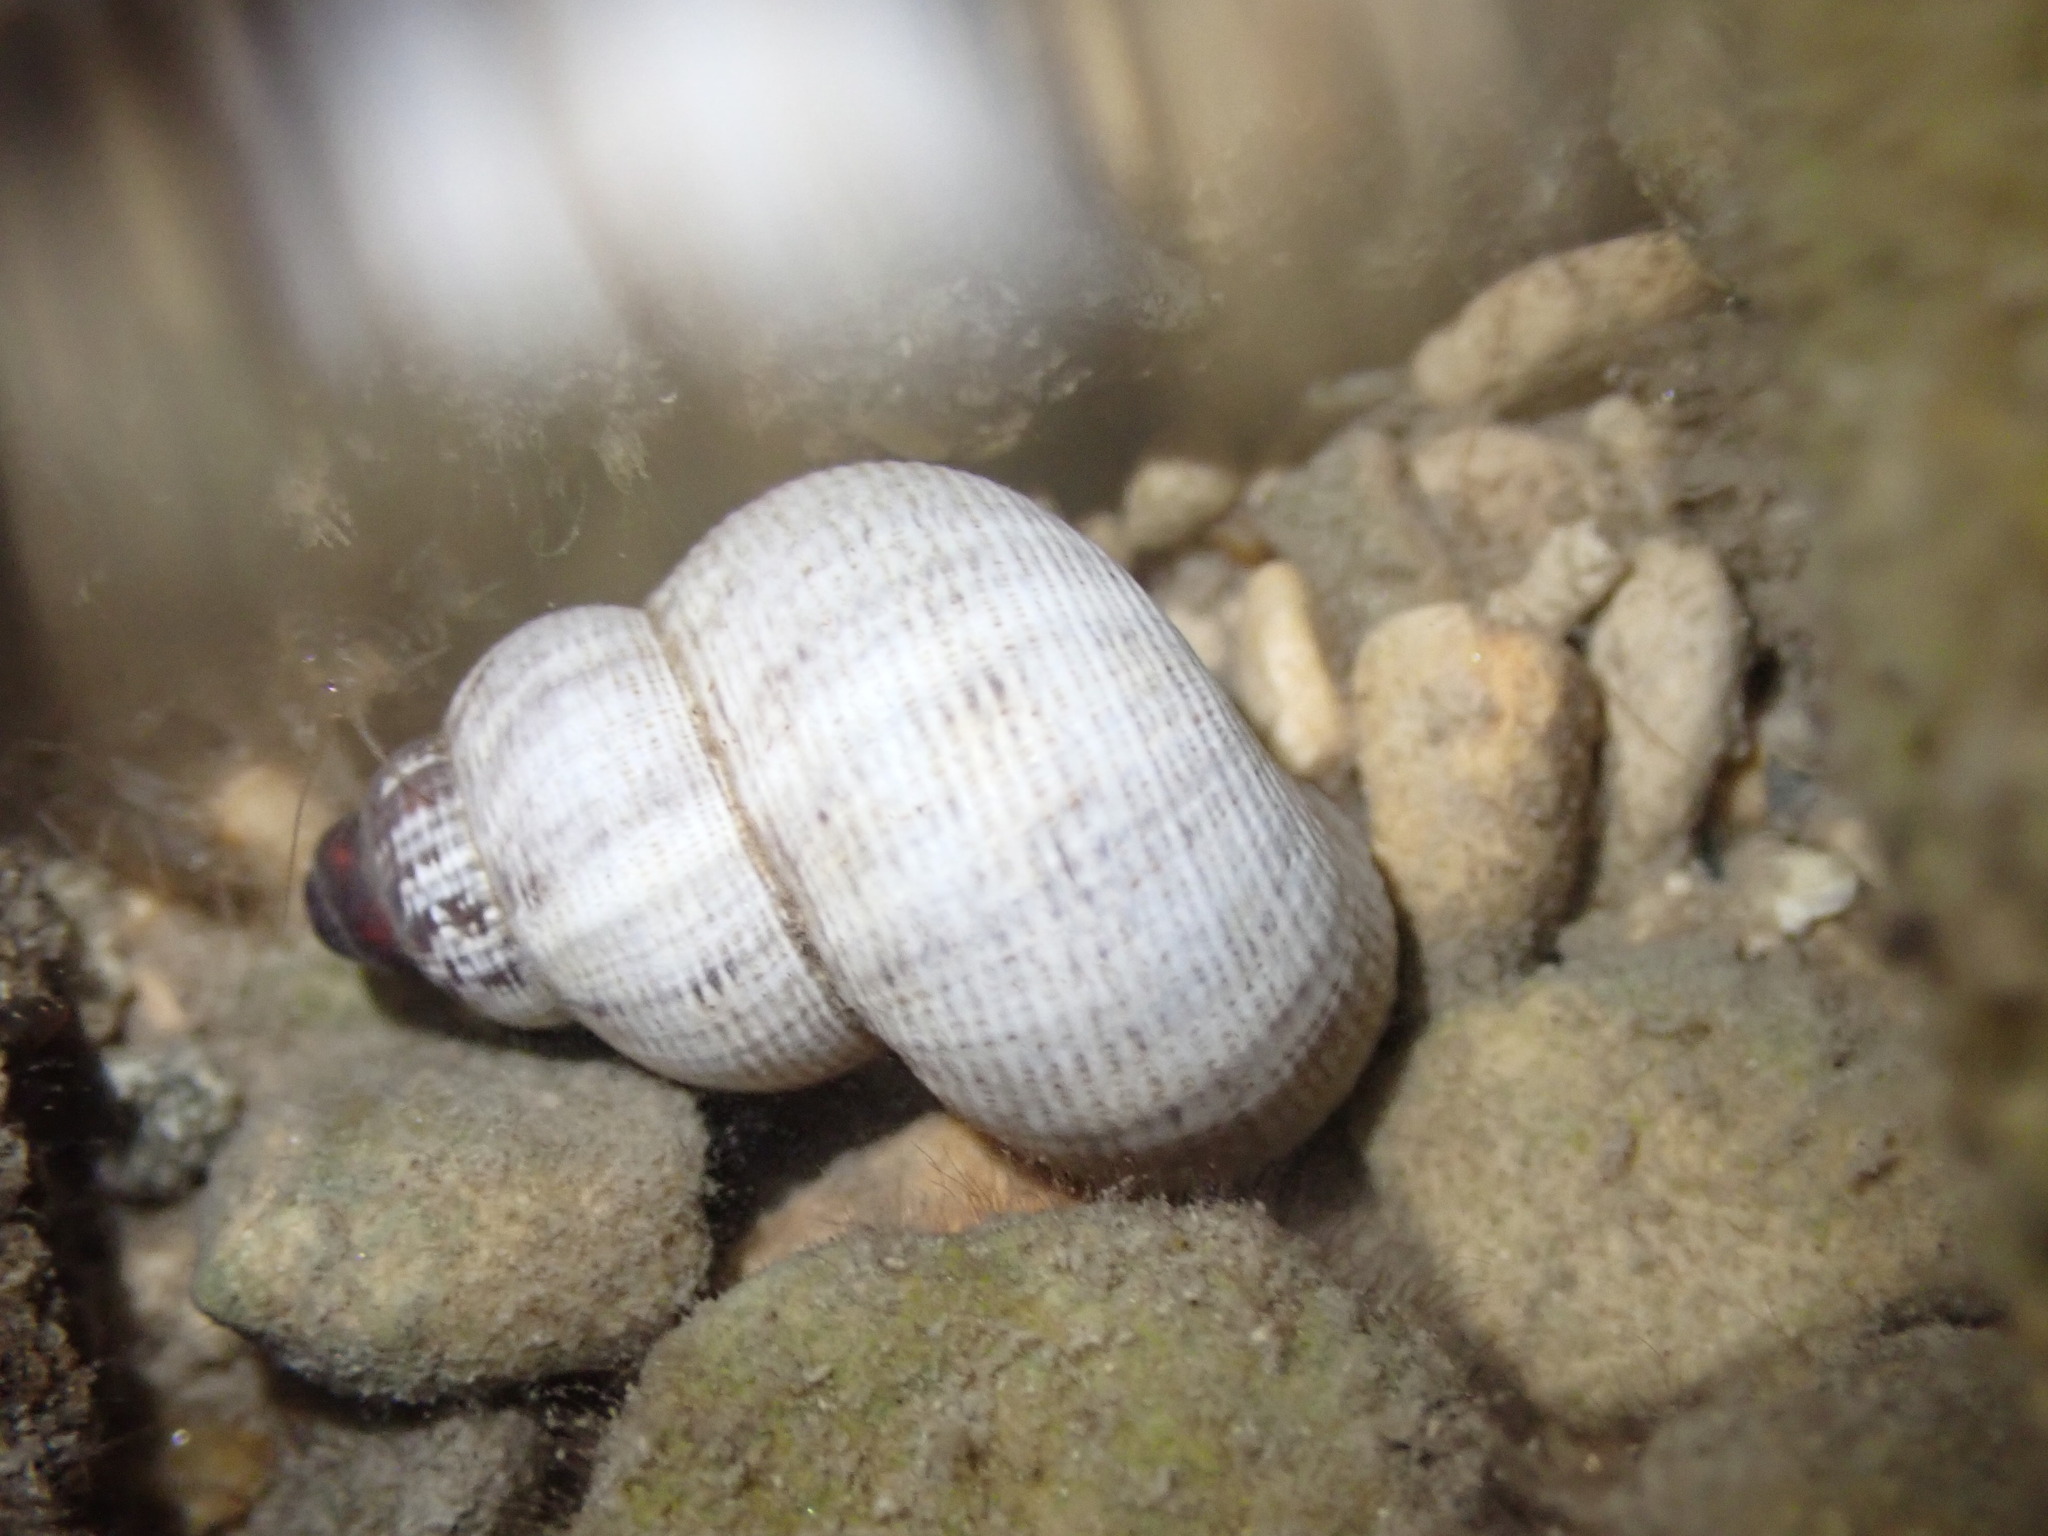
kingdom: Animalia
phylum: Mollusca
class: Gastropoda
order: Littorinimorpha
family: Pomatiidae
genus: Pomatias
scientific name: Pomatias elegans
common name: Red-mouthed snail
